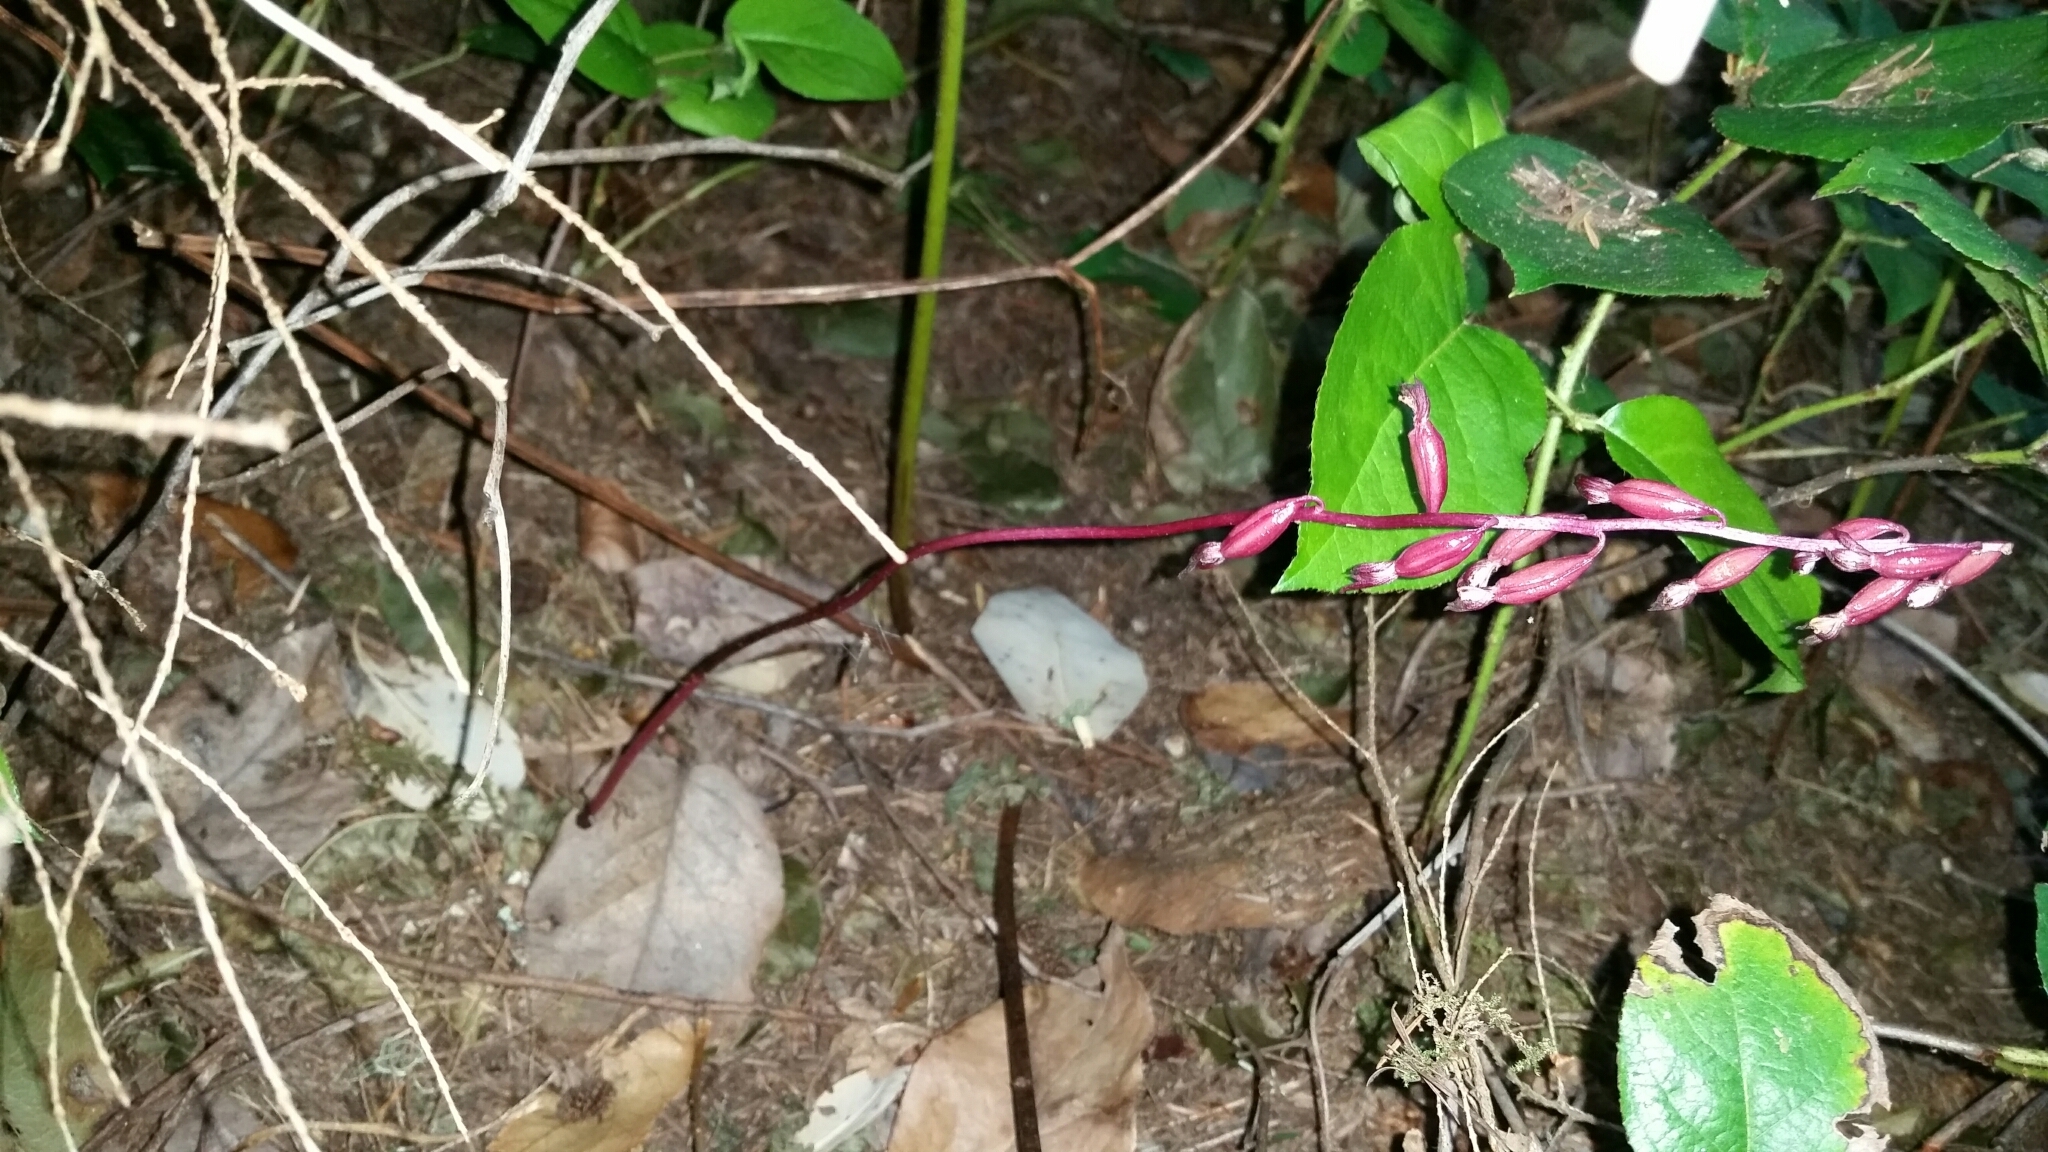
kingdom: Plantae
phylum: Tracheophyta
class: Liliopsida
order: Asparagales
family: Orchidaceae
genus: Corallorhiza
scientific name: Corallorhiza maculata
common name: Spotted coralroot
